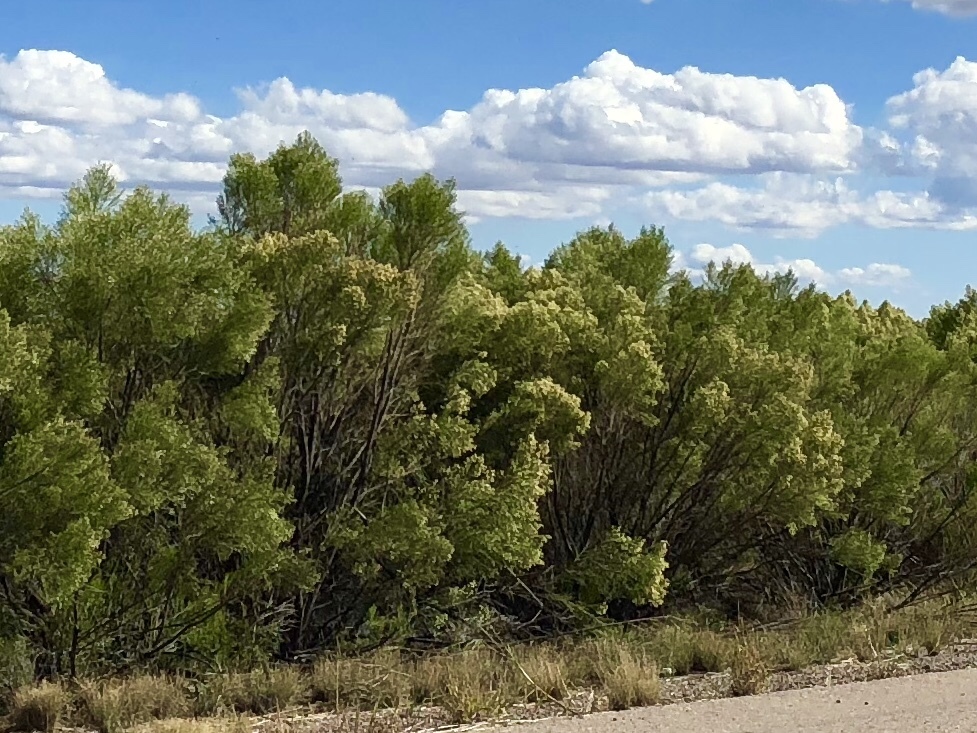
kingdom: Plantae
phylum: Tracheophyta
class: Magnoliopsida
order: Asterales
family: Asteraceae
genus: Baccharis
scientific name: Baccharis sarothroides
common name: Desert-broom
